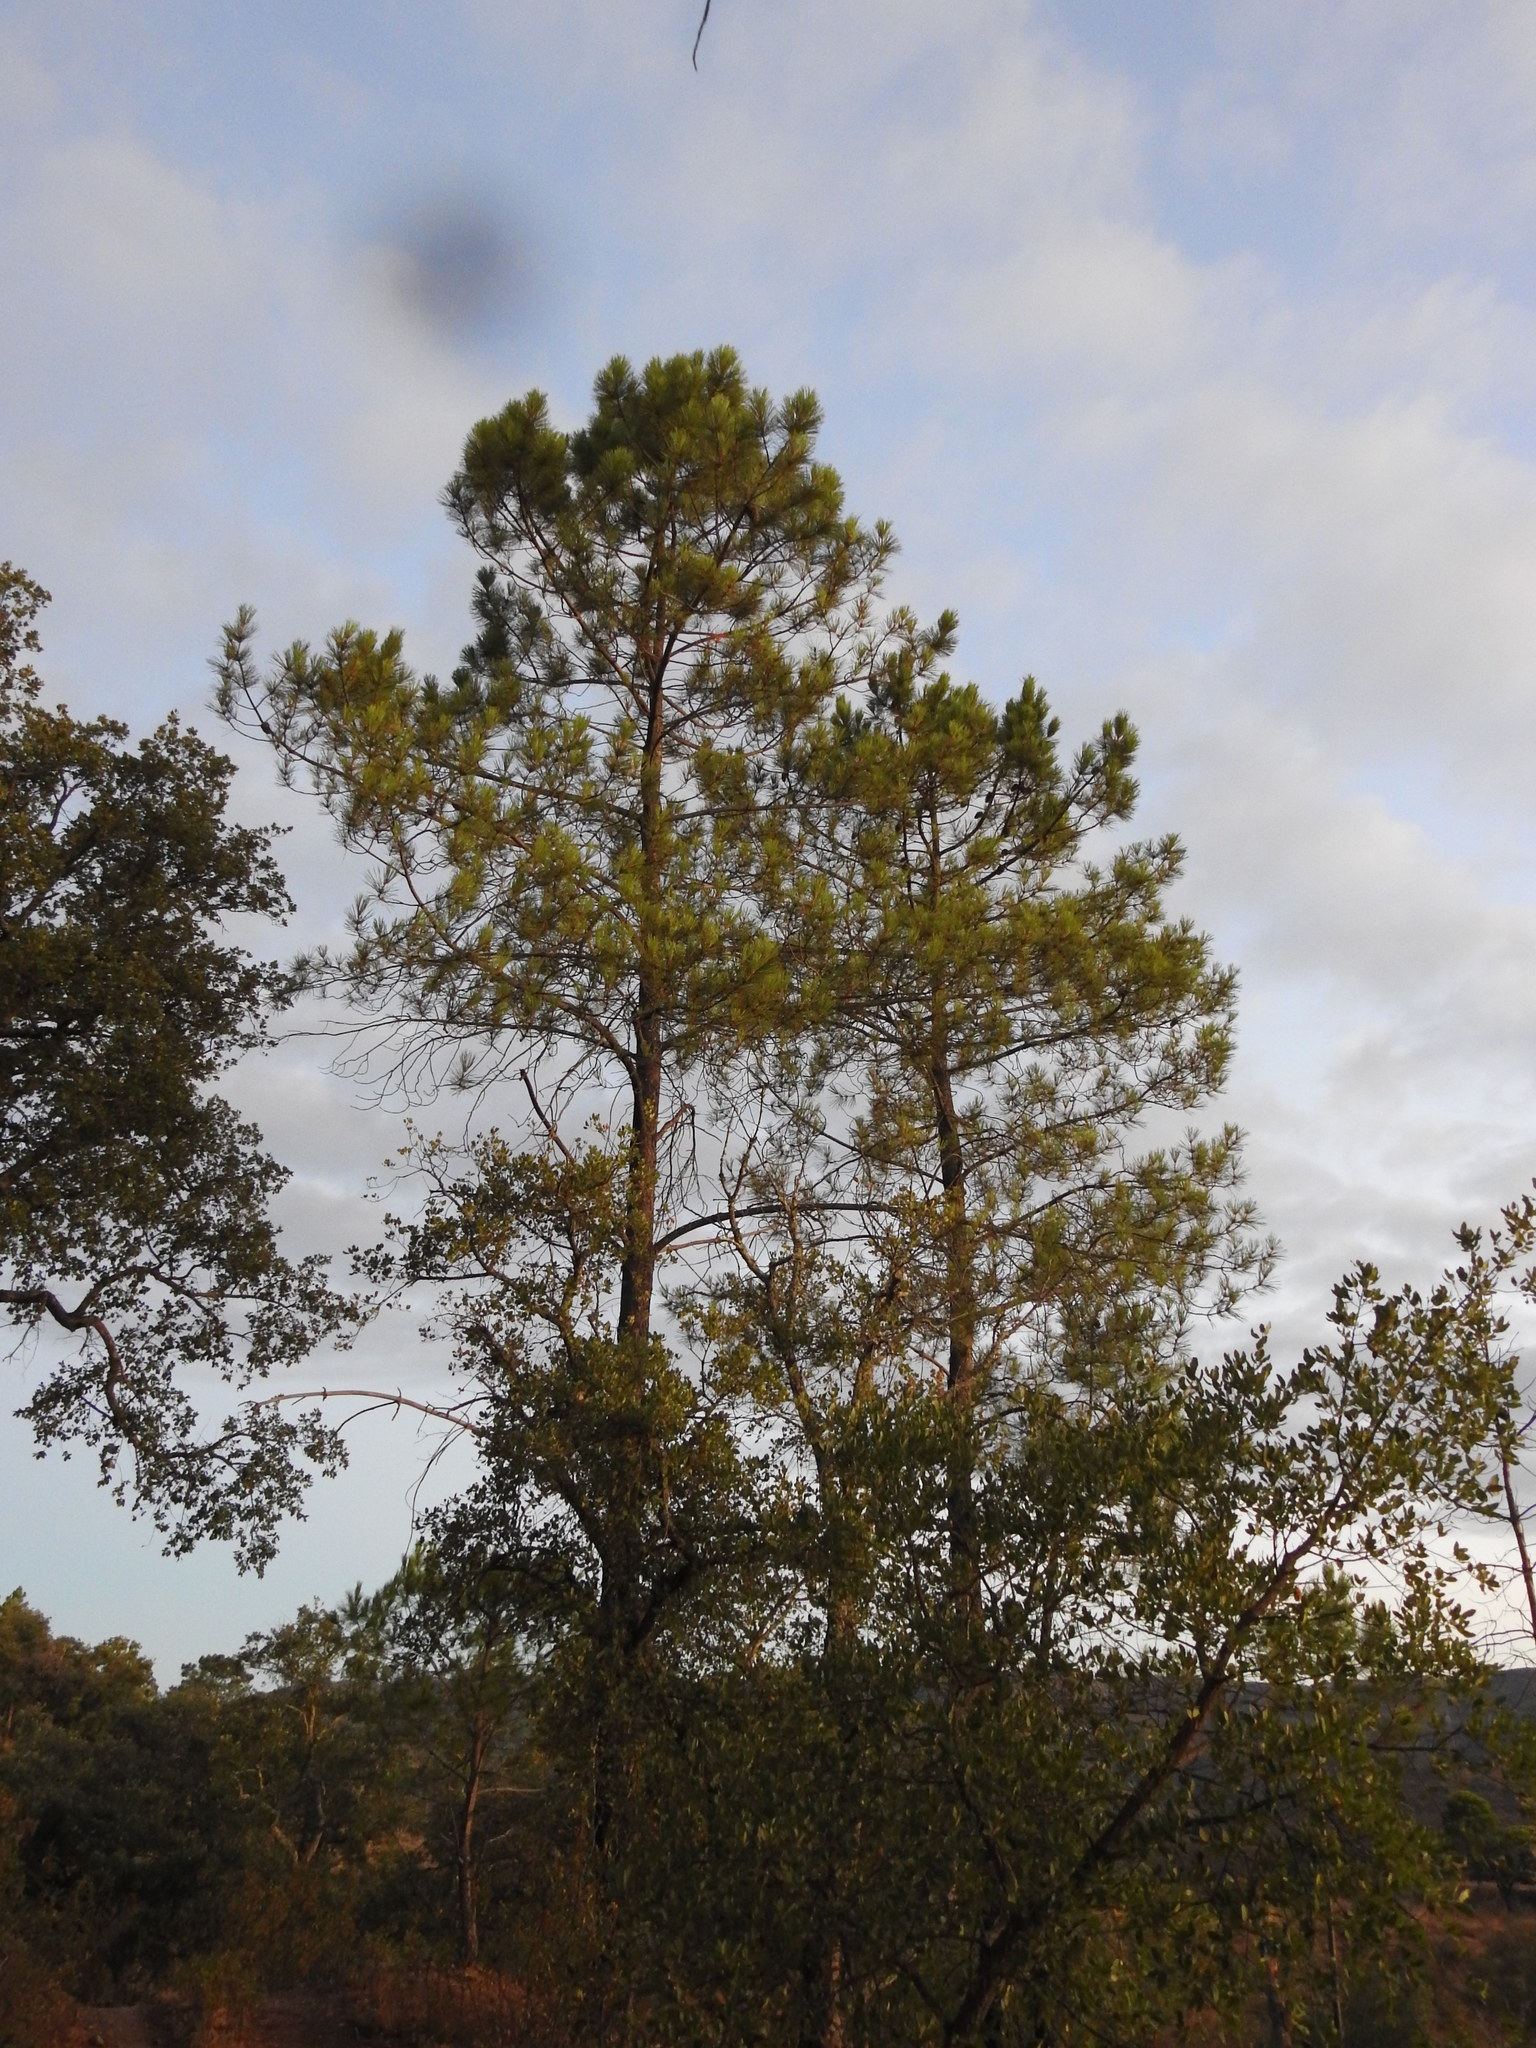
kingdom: Plantae
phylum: Tracheophyta
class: Pinopsida
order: Pinales
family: Pinaceae
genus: Pinus
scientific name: Pinus pinaster
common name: Maritime pine
